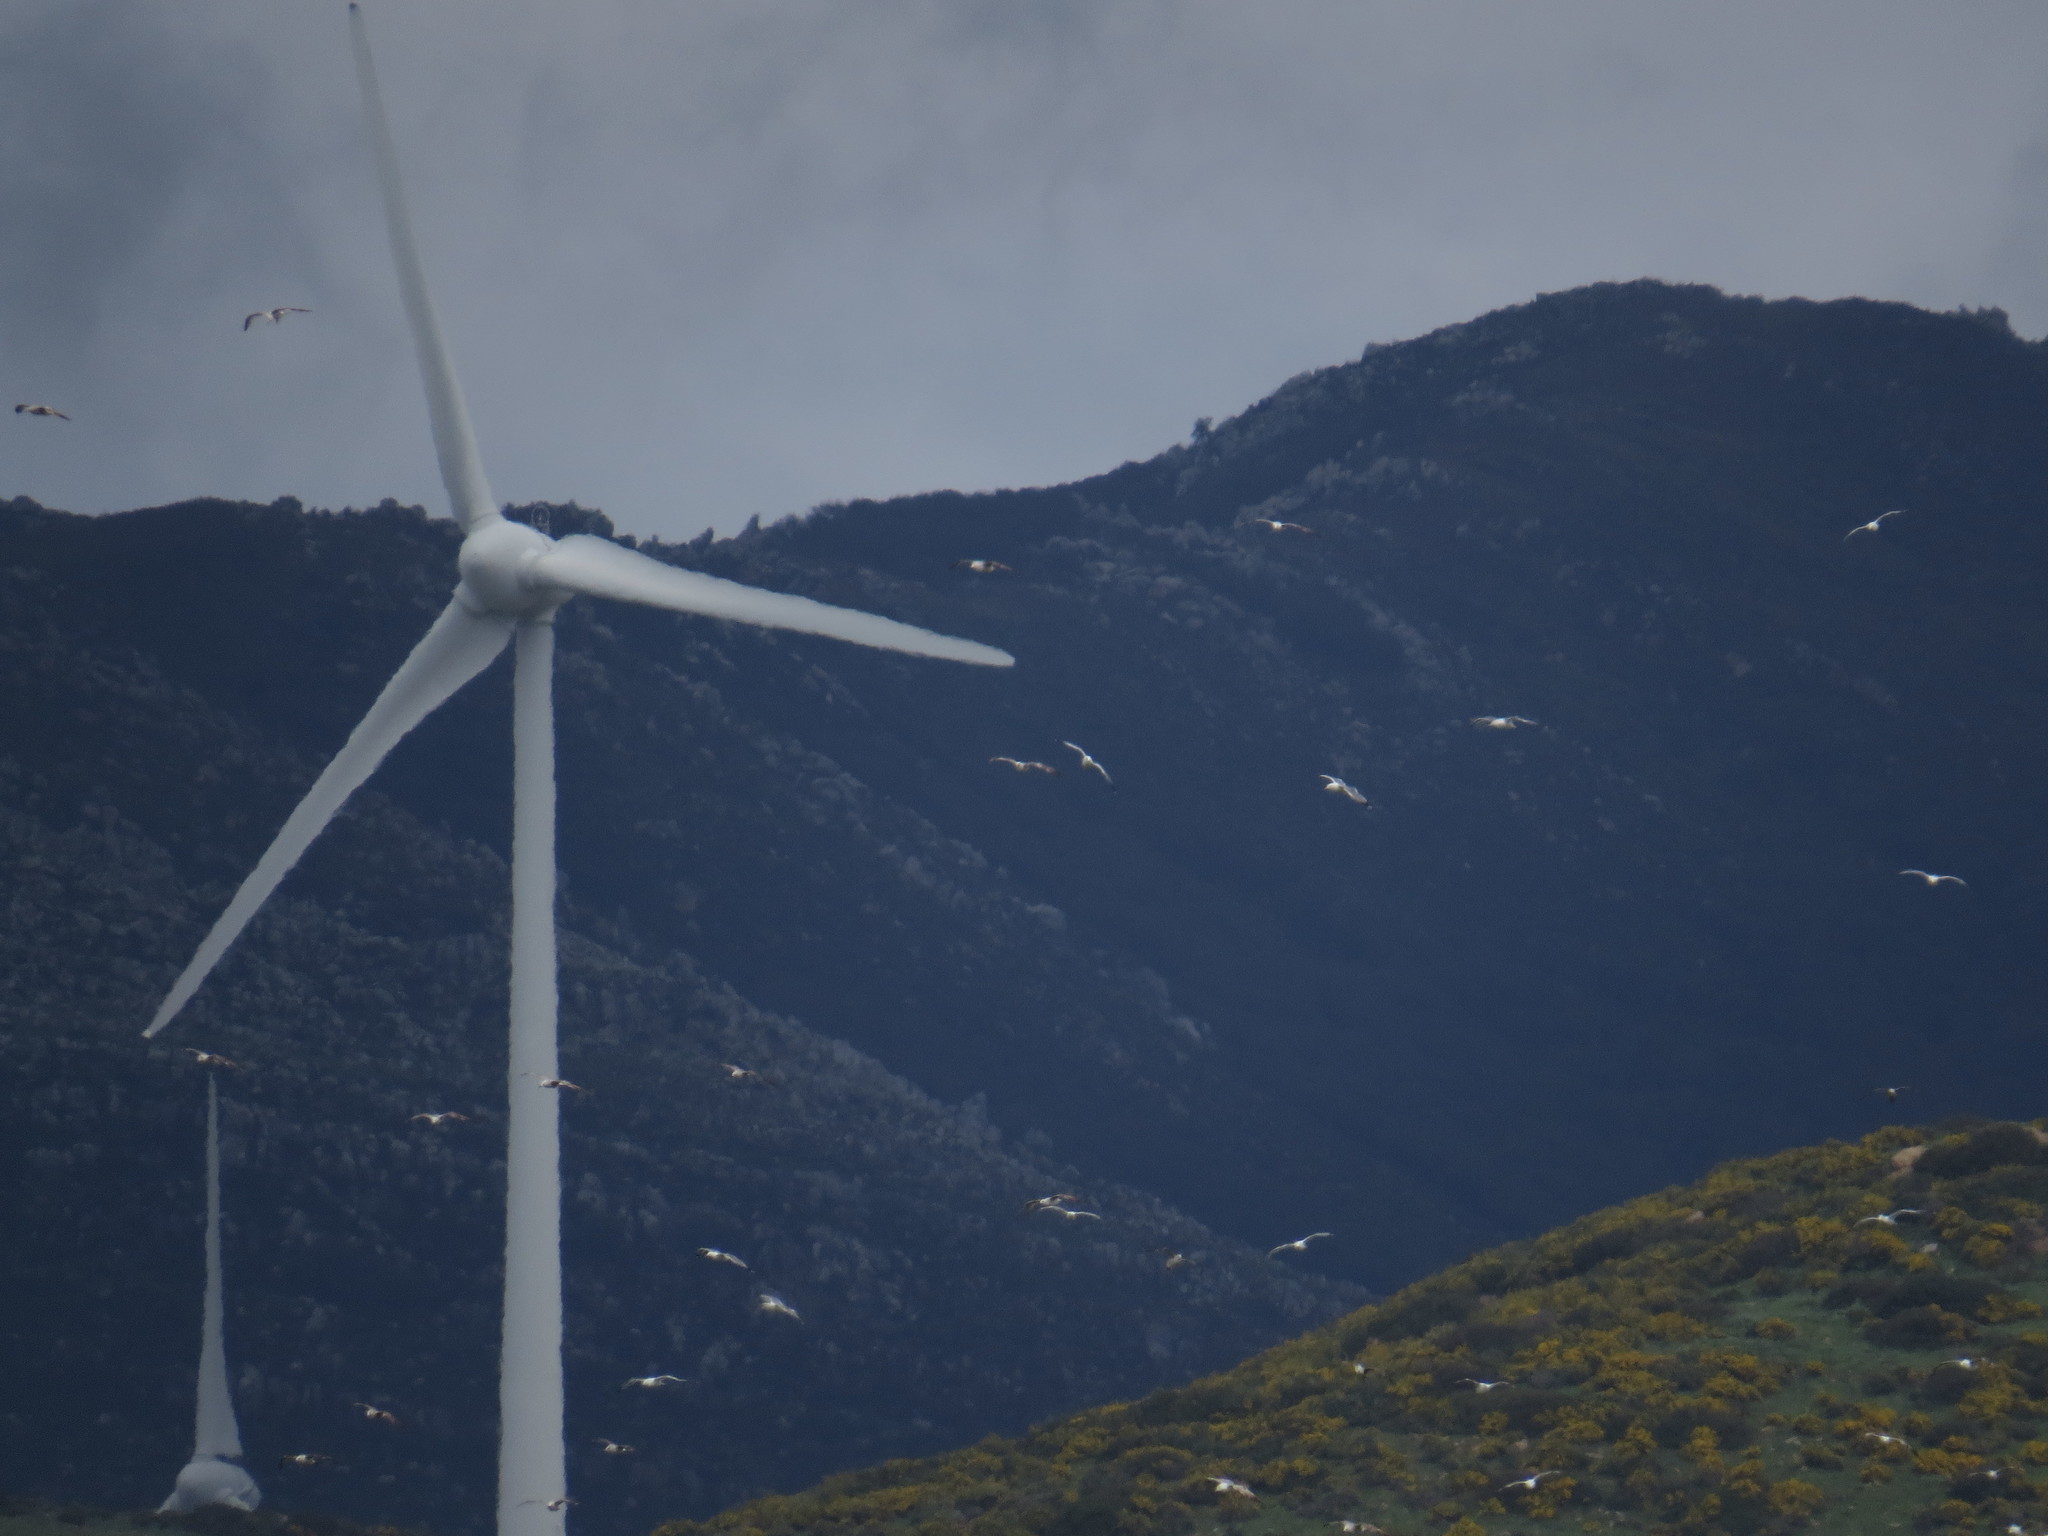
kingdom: Animalia
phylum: Chordata
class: Aves
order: Charadriiformes
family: Laridae
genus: Larus
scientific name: Larus michahellis
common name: Yellow-legged gull
